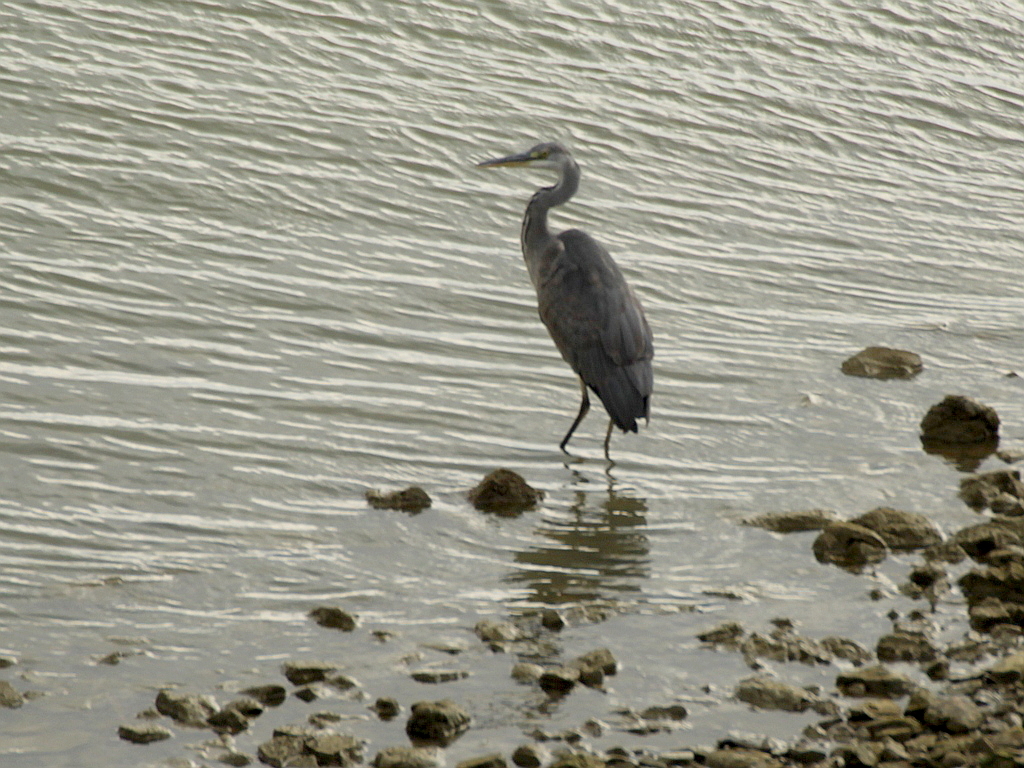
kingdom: Animalia
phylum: Chordata
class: Aves
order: Pelecaniformes
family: Ardeidae
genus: Ardea
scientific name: Ardea cinerea
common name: Grey heron
